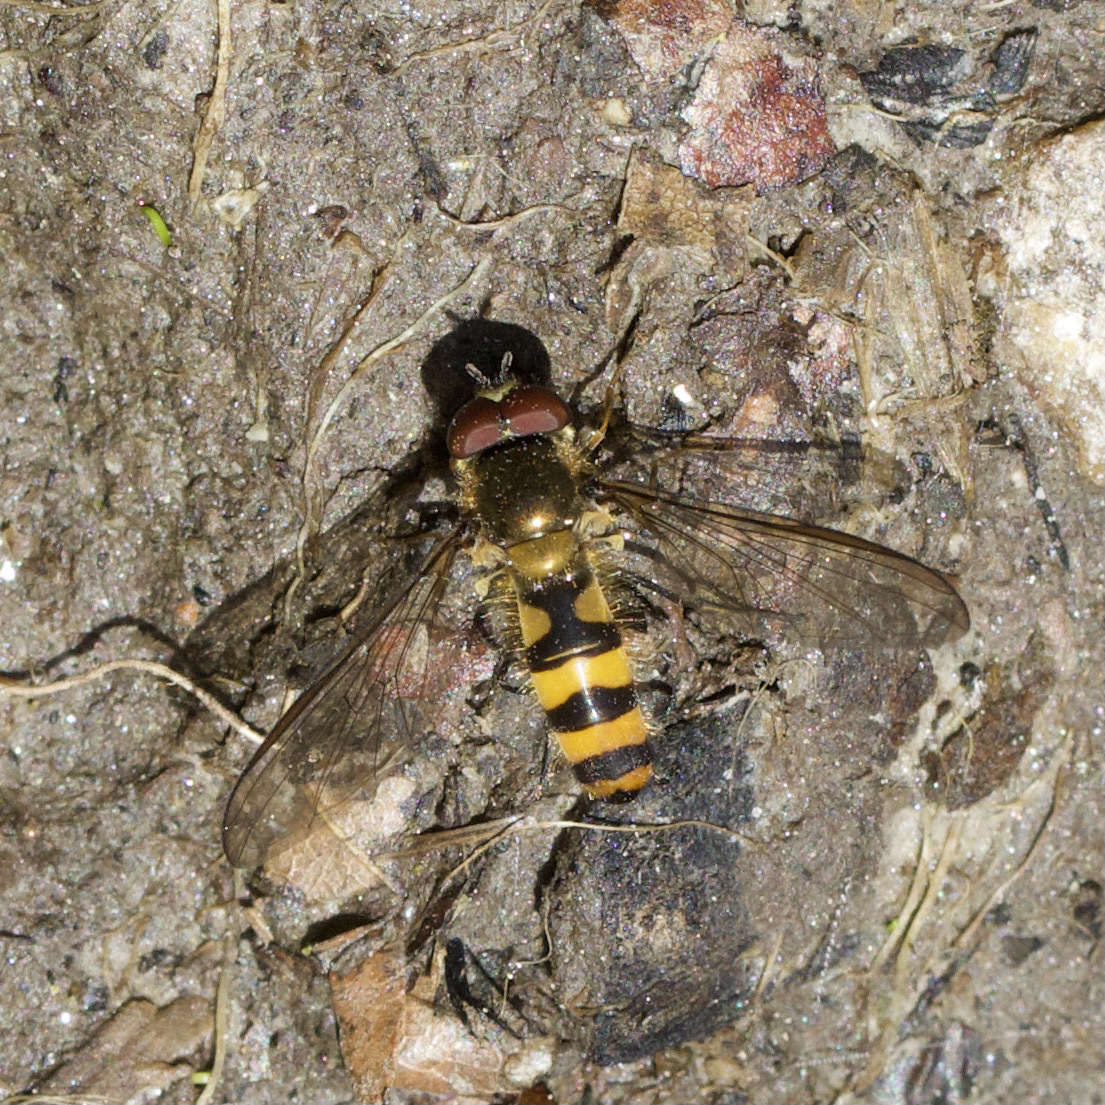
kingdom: Animalia
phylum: Arthropoda
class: Insecta
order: Diptera
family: Syrphidae
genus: Meliscaeva
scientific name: Meliscaeva cinctella
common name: American thintail fly
